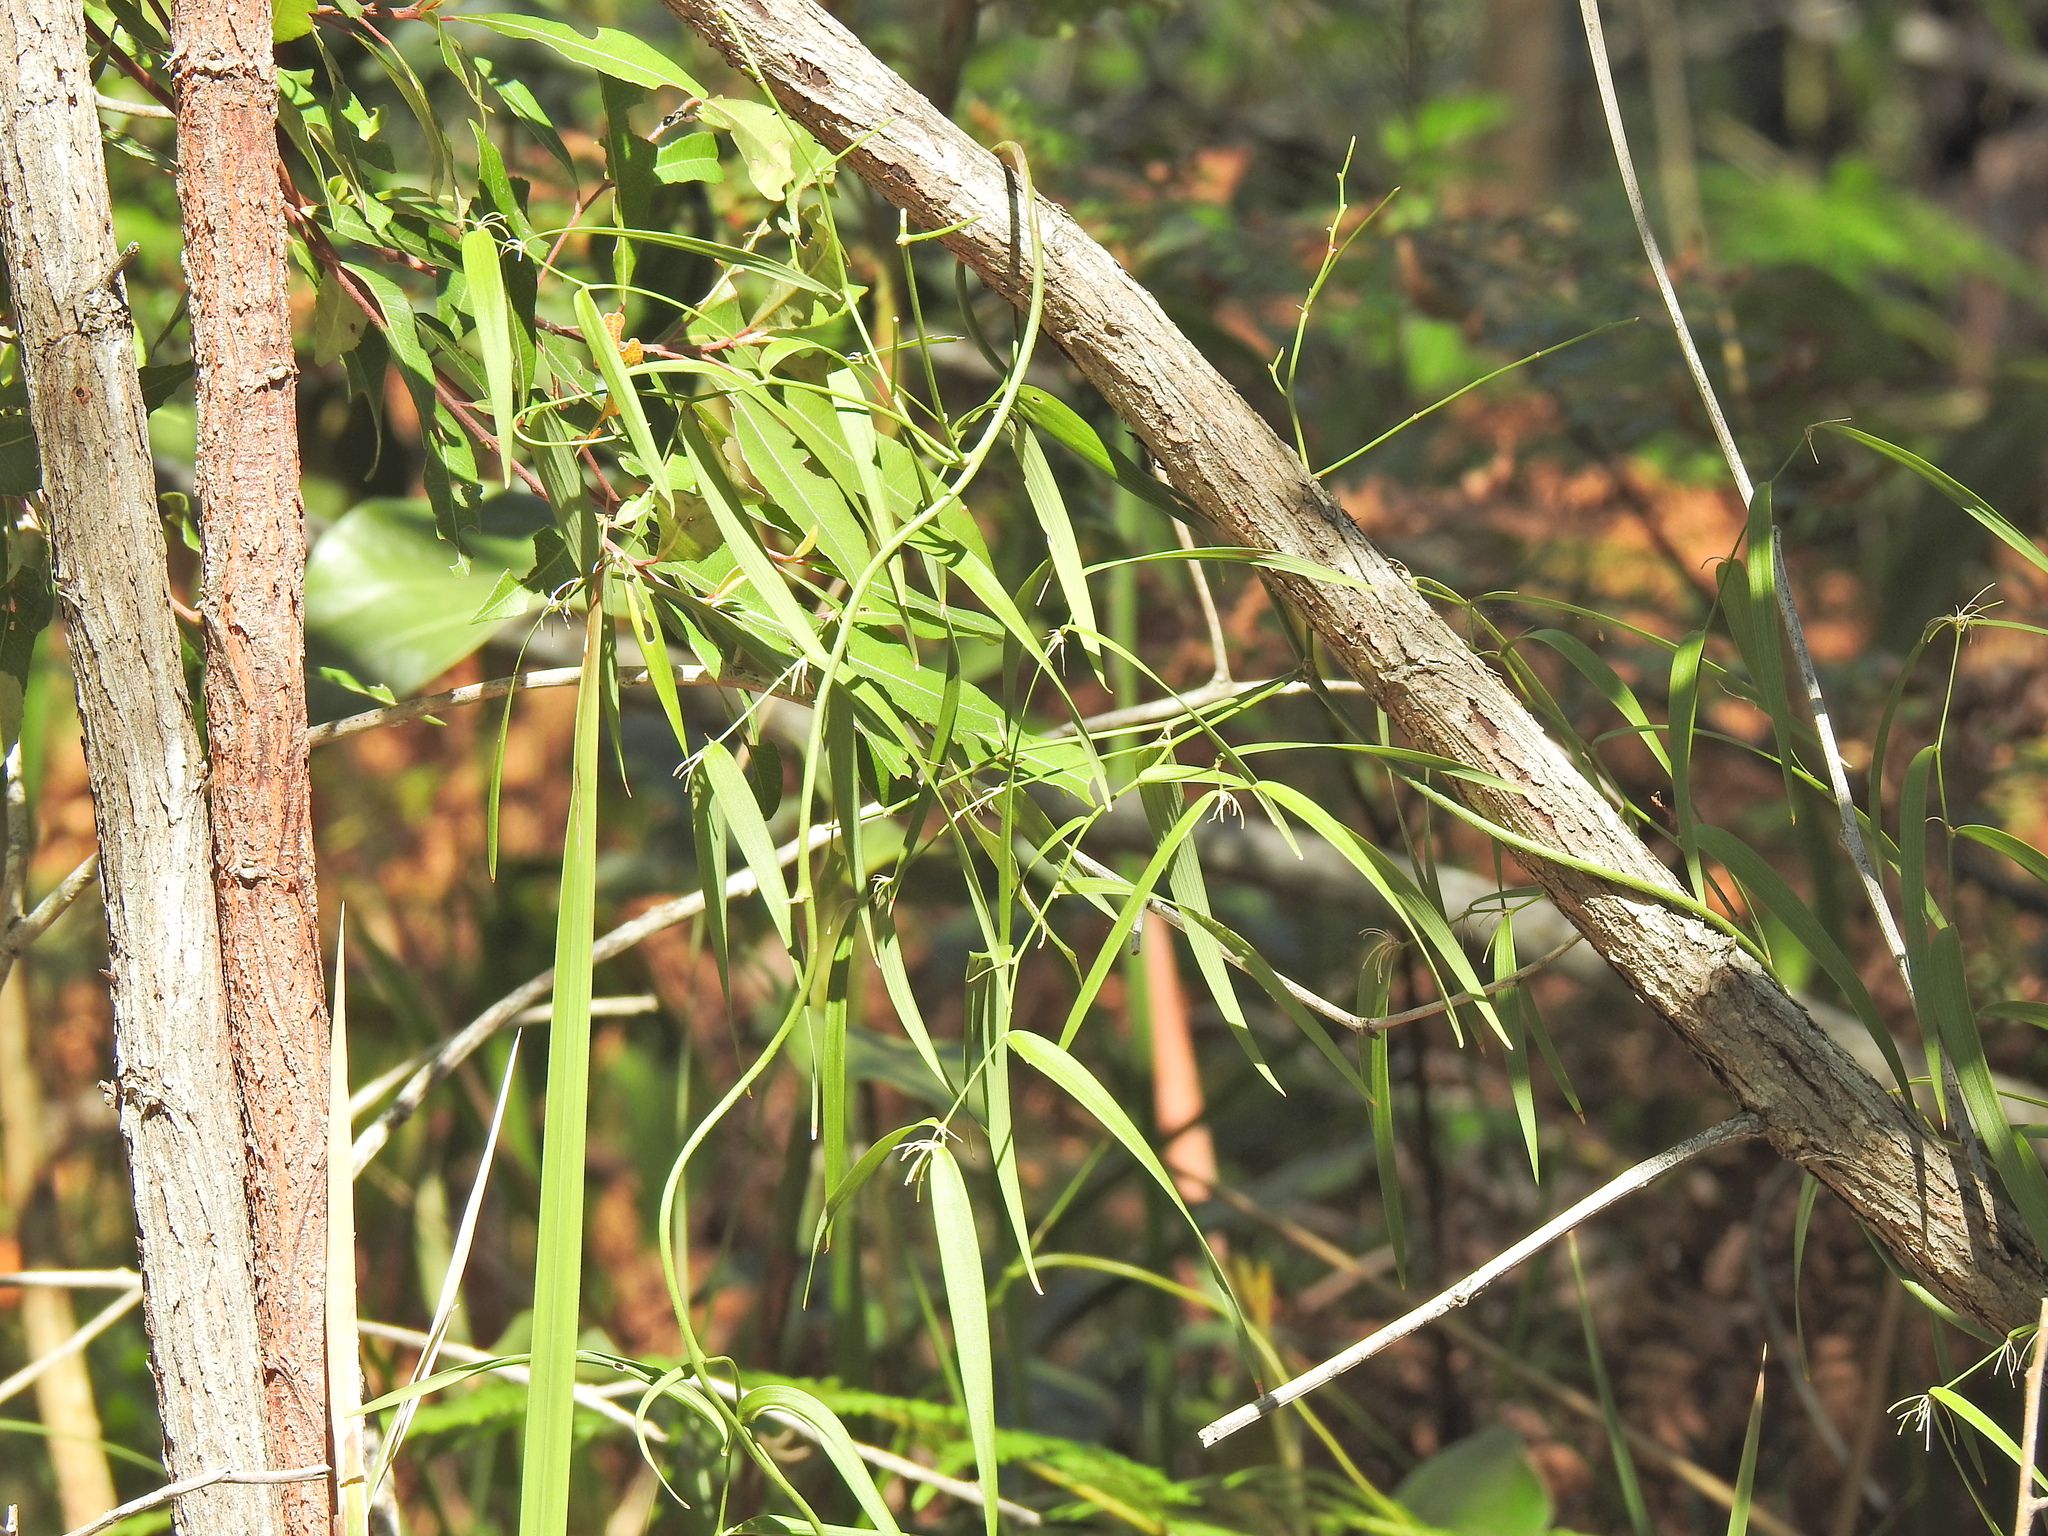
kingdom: Plantae
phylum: Tracheophyta
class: Liliopsida
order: Asparagales
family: Asparagaceae
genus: Eustrephus
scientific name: Eustrephus latifolius
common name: Orangevine
